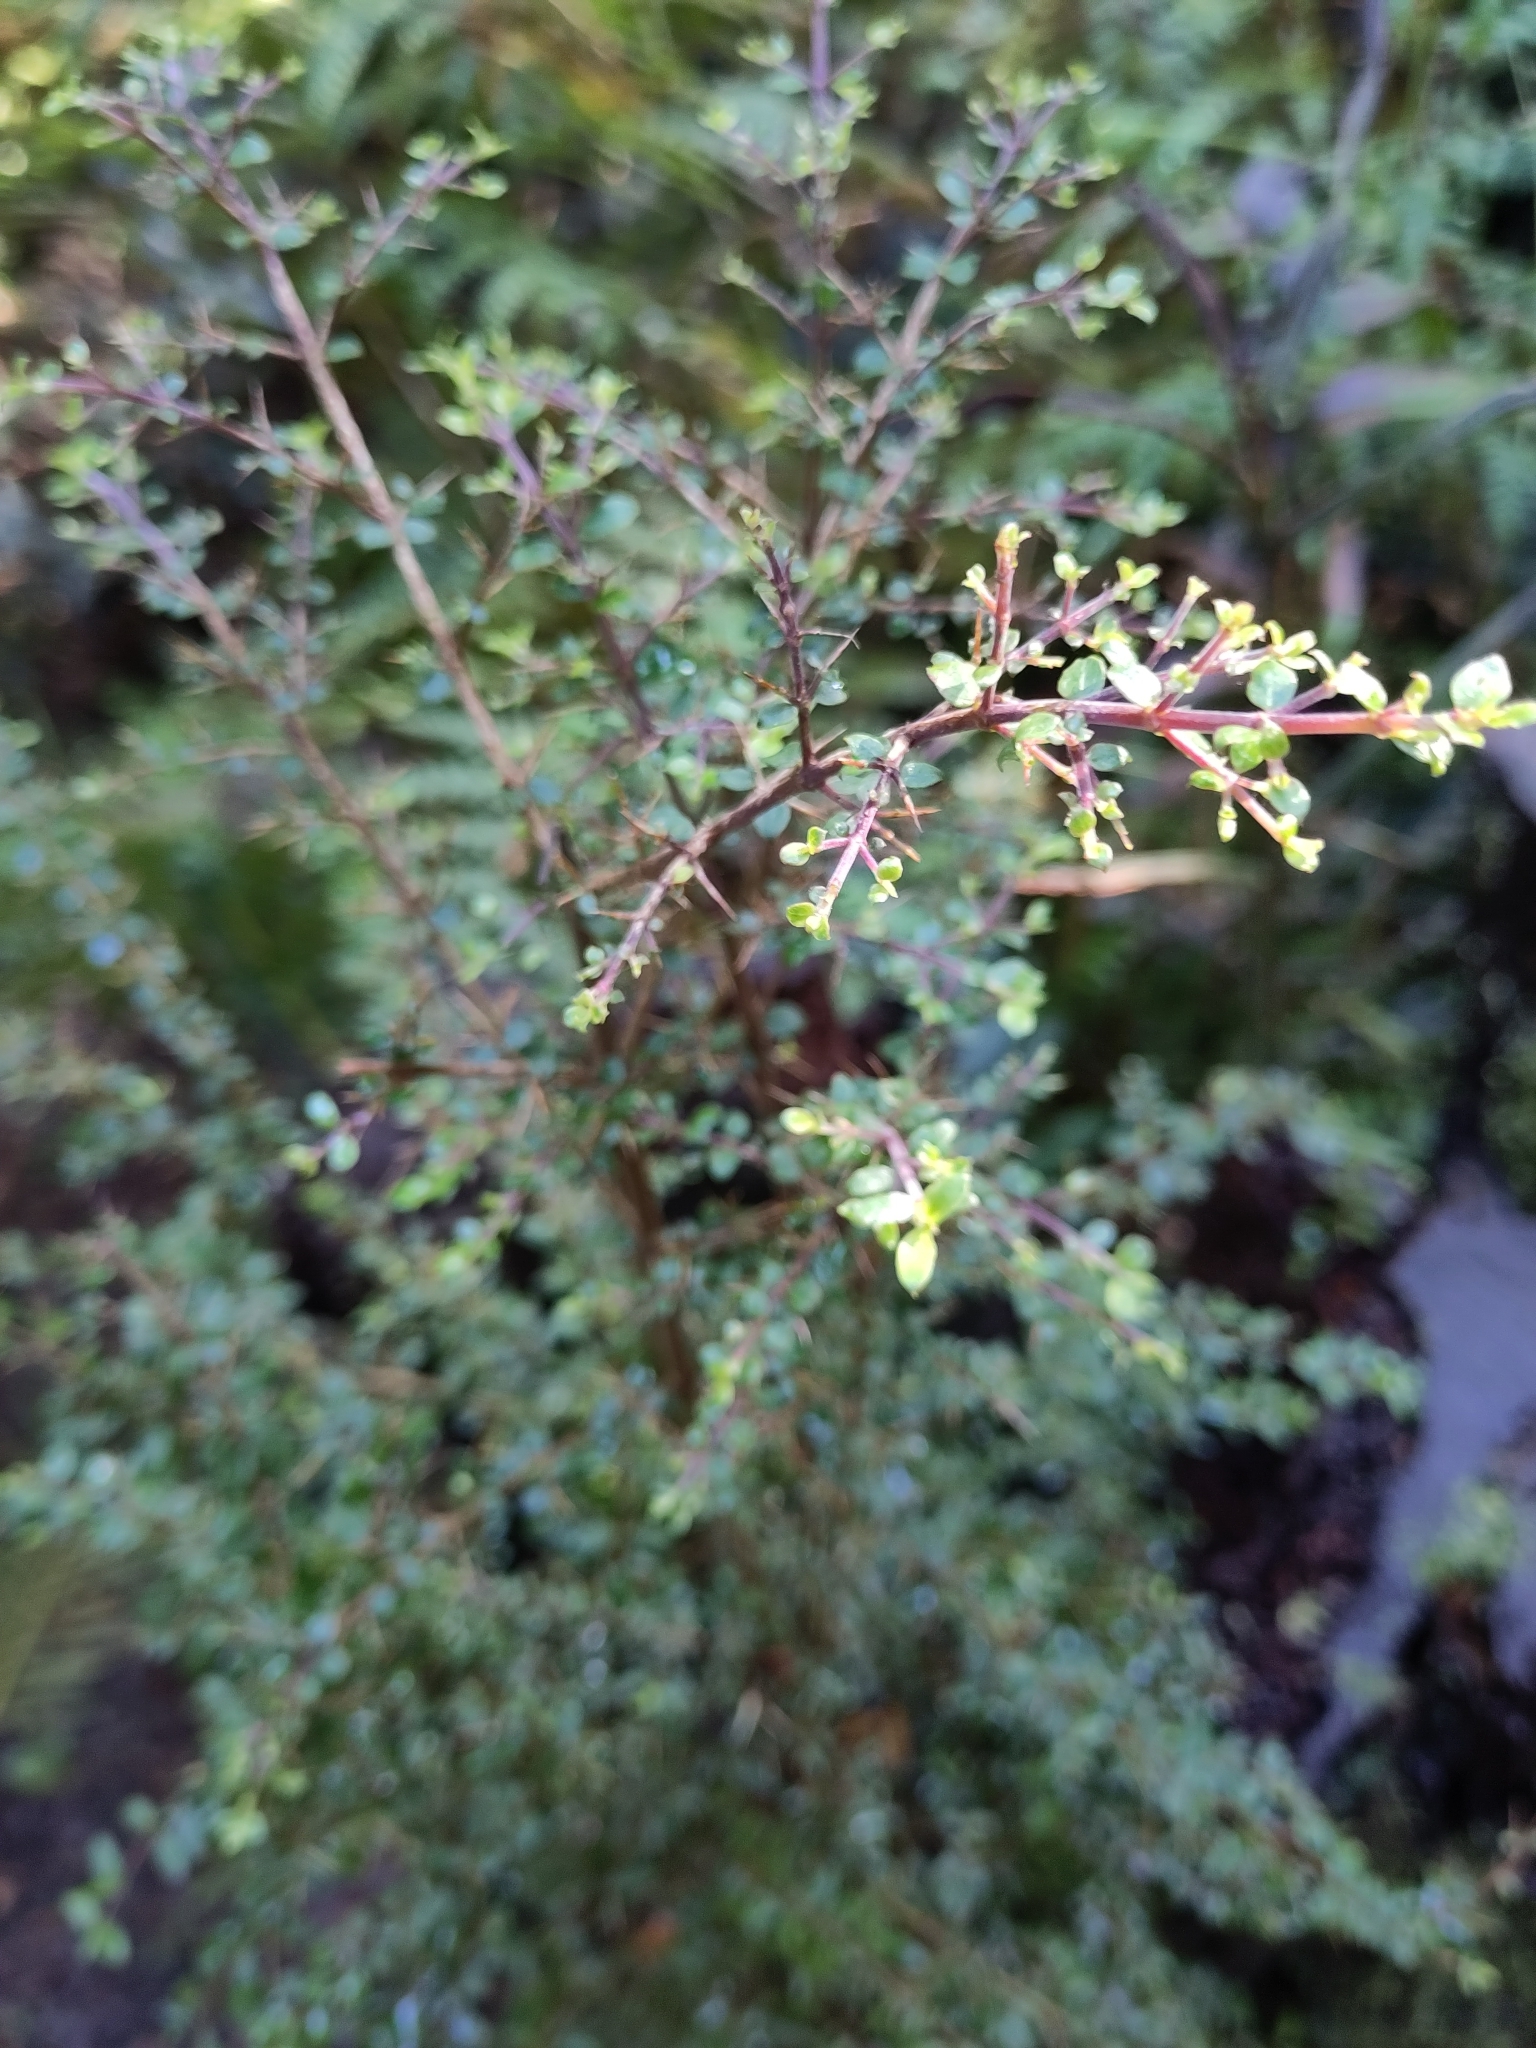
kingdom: Plantae
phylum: Tracheophyta
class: Magnoliopsida
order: Gentianales
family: Rubiaceae
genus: Coprosma
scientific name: Coprosma quadrifida
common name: Prickly currantbush
